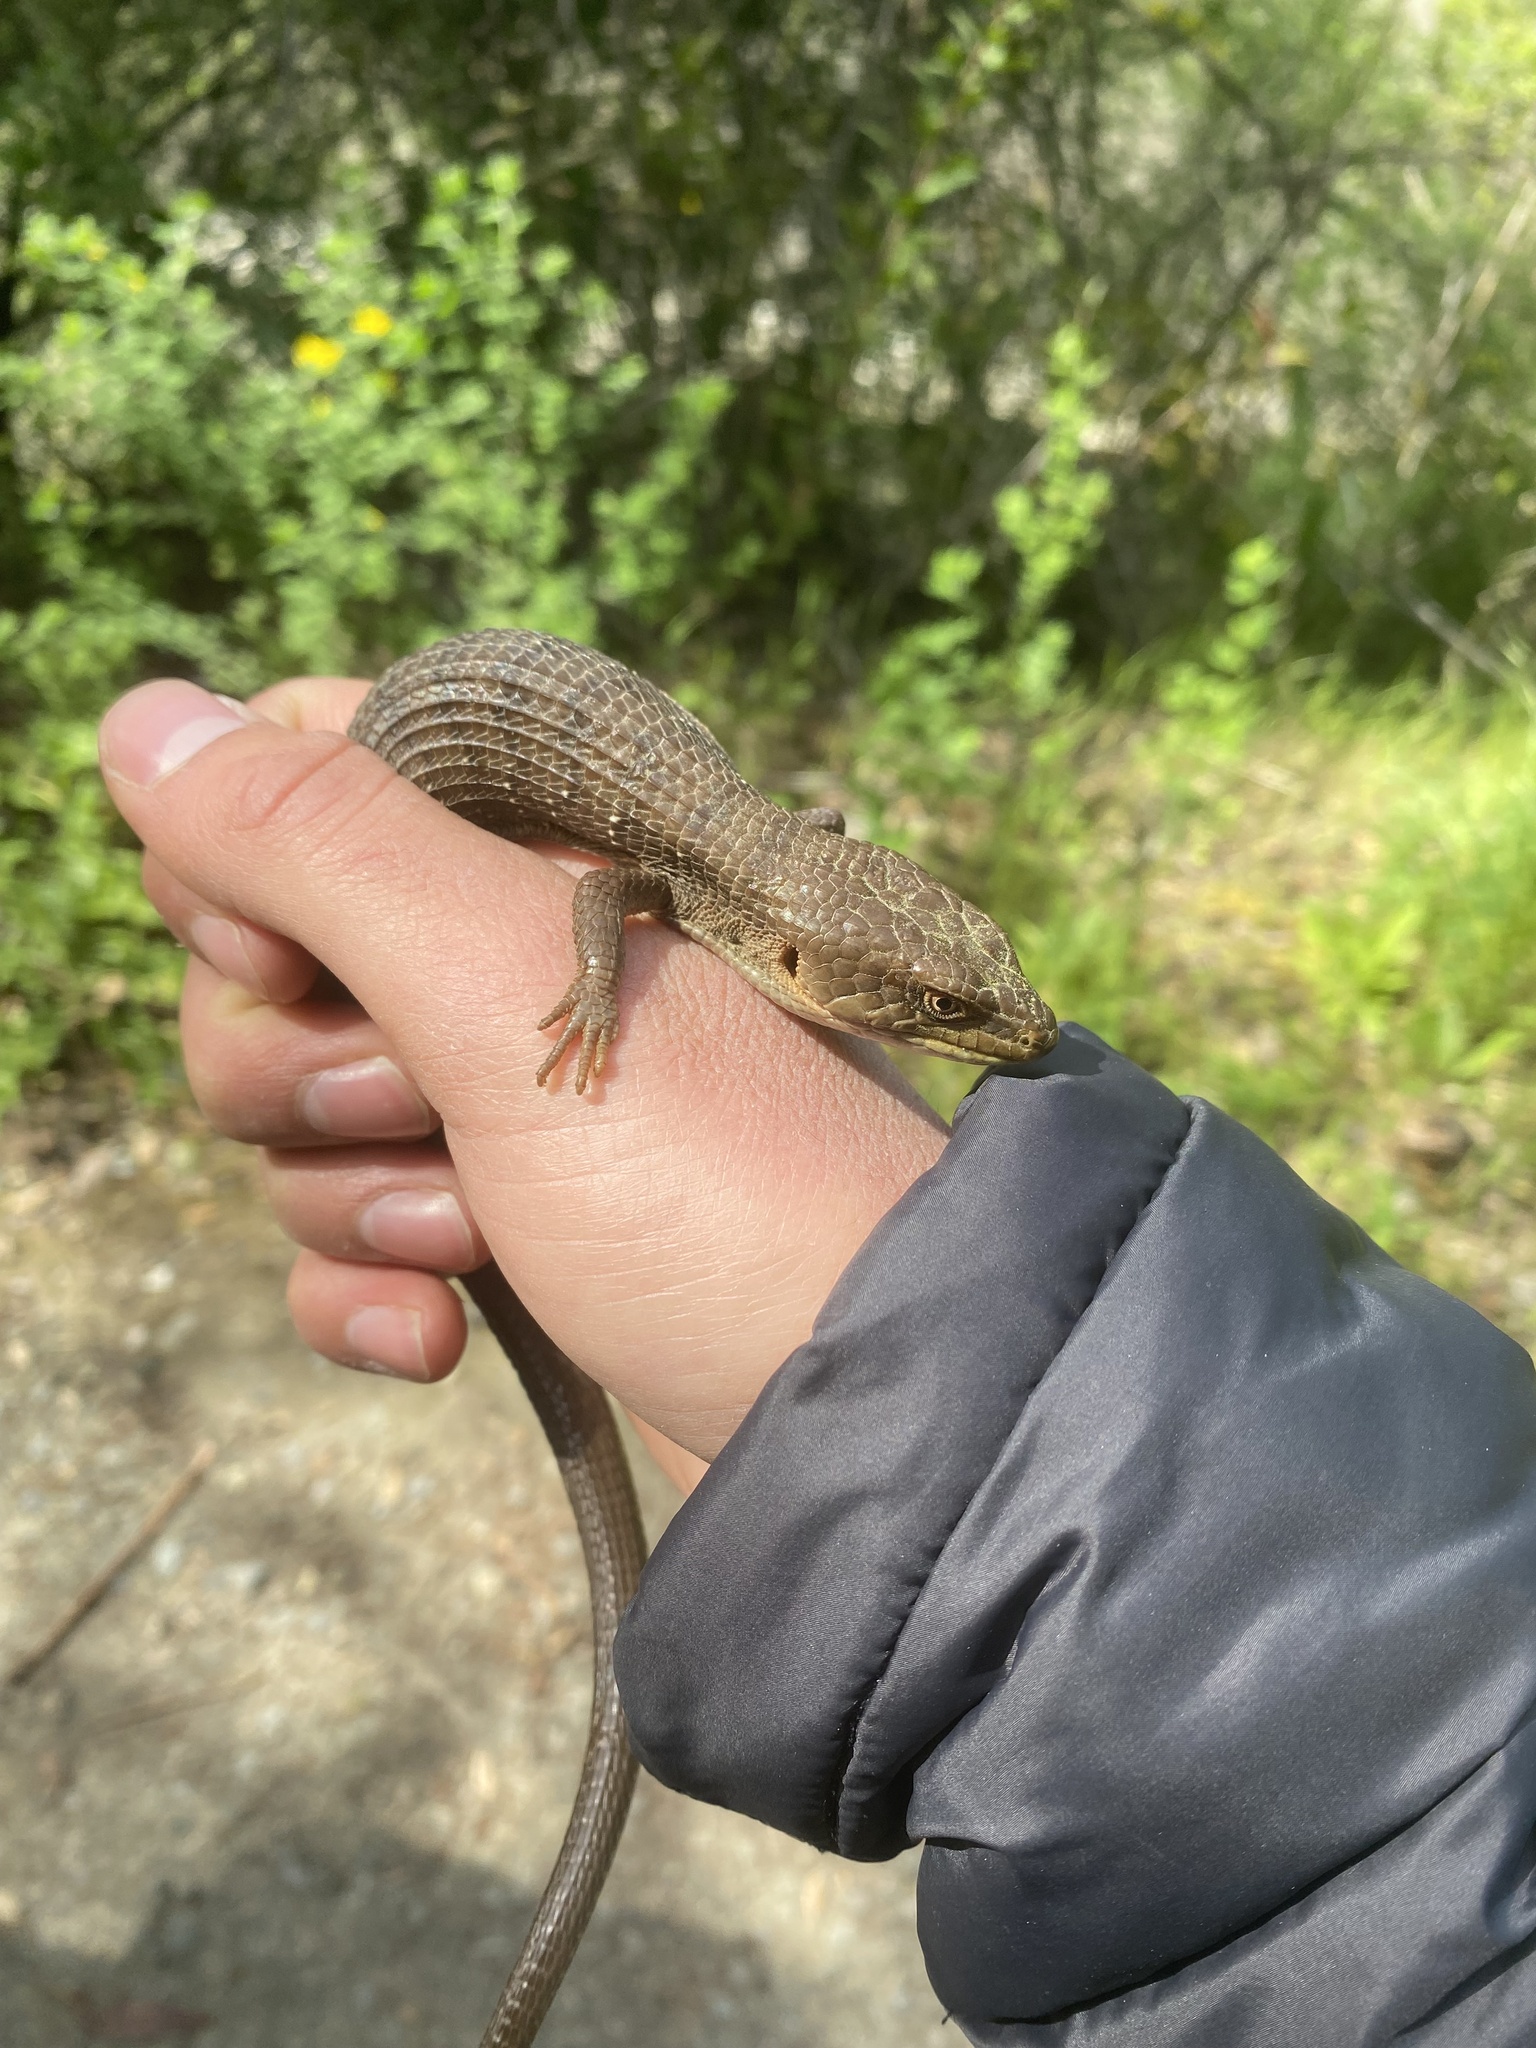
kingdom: Animalia
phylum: Chordata
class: Squamata
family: Anguidae
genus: Elgaria
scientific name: Elgaria multicarinata
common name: Southern alligator lizard
